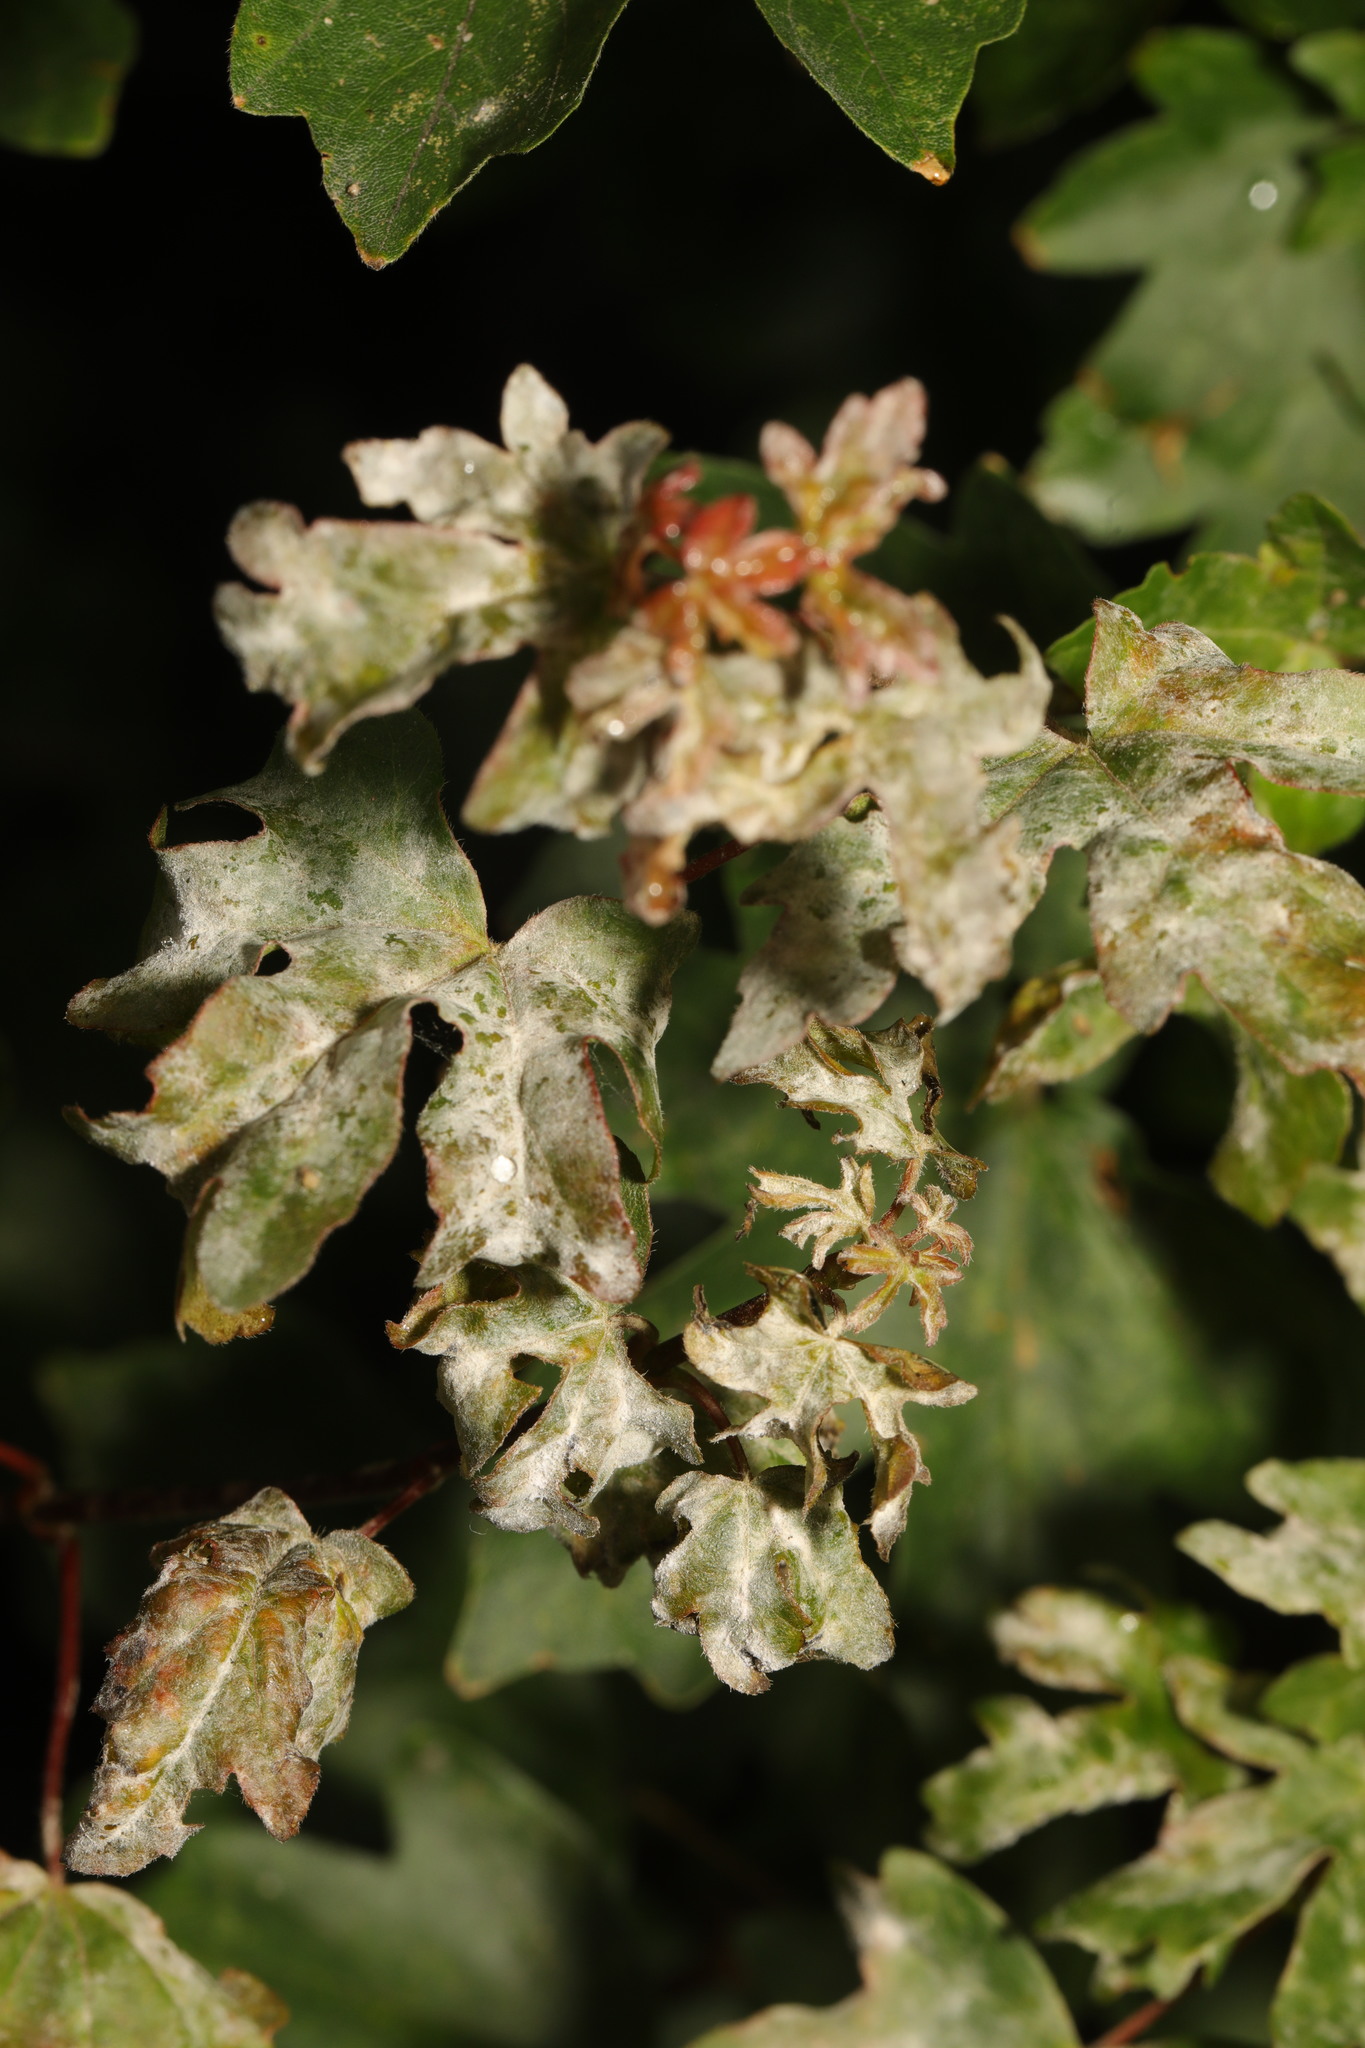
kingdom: Plantae
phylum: Tracheophyta
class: Magnoliopsida
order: Sapindales
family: Sapindaceae
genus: Acer
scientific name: Acer campestre
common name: Field maple
